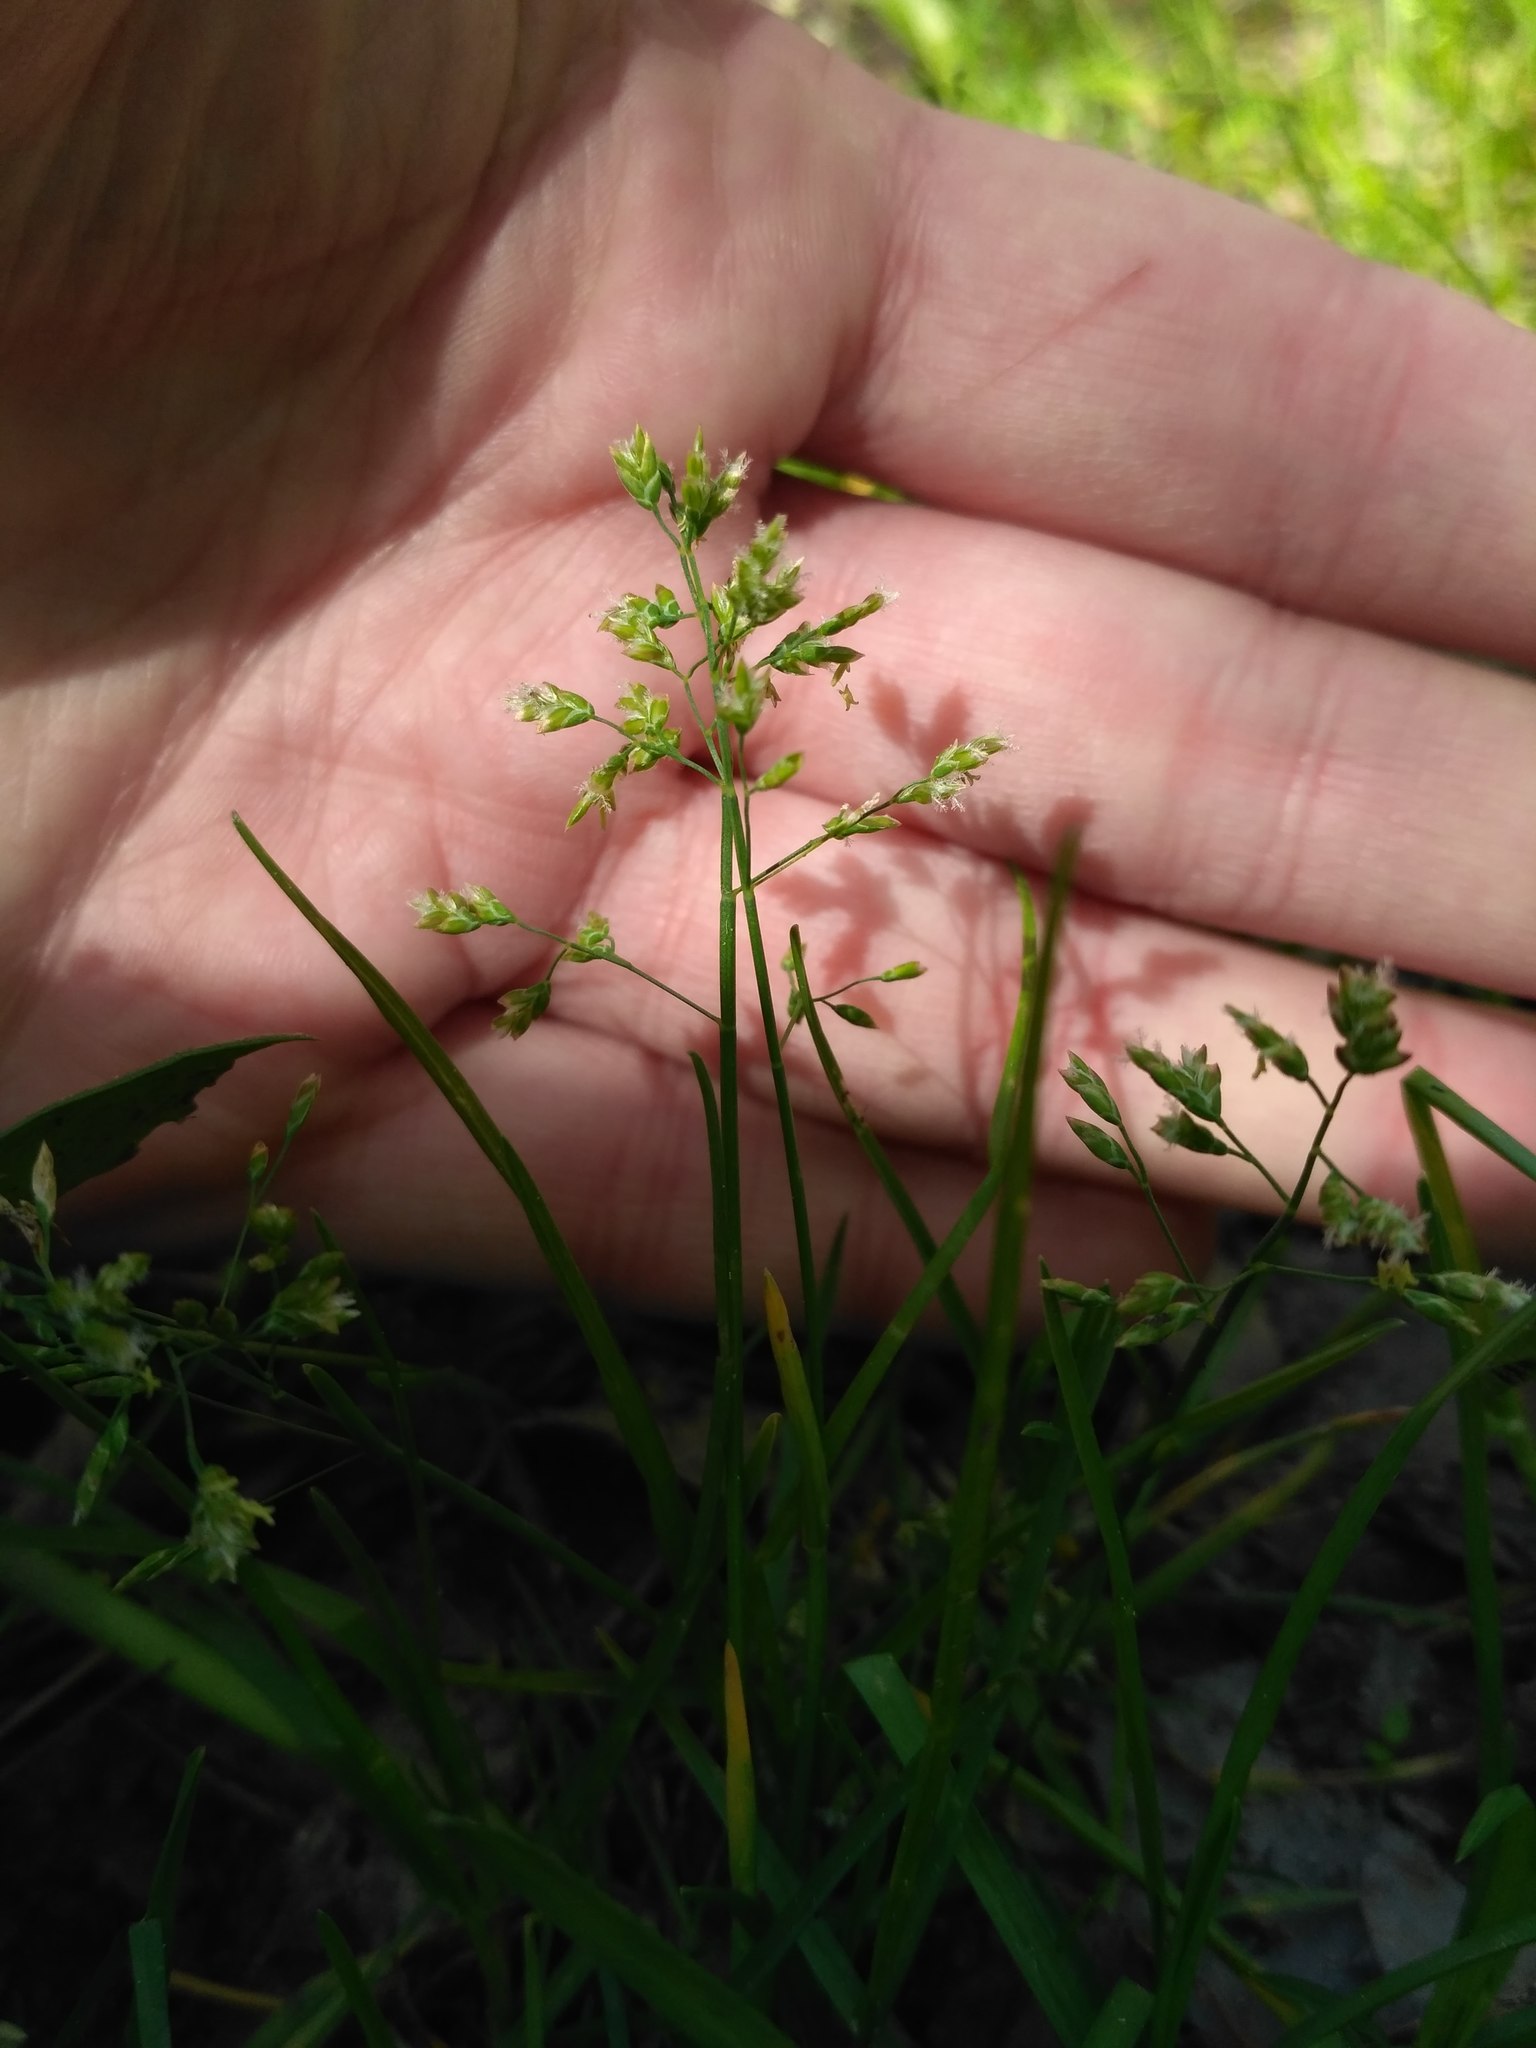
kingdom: Plantae
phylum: Tracheophyta
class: Liliopsida
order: Poales
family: Poaceae
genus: Poa
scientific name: Poa annua
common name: Annual bluegrass
